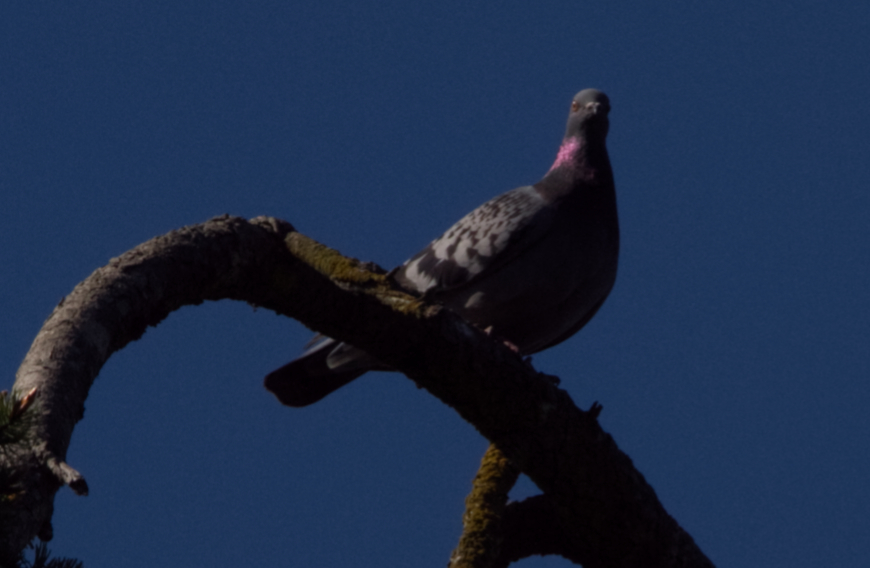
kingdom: Animalia
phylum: Chordata
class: Aves
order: Columbiformes
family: Columbidae
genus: Columba
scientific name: Columba livia
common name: Rock pigeon
